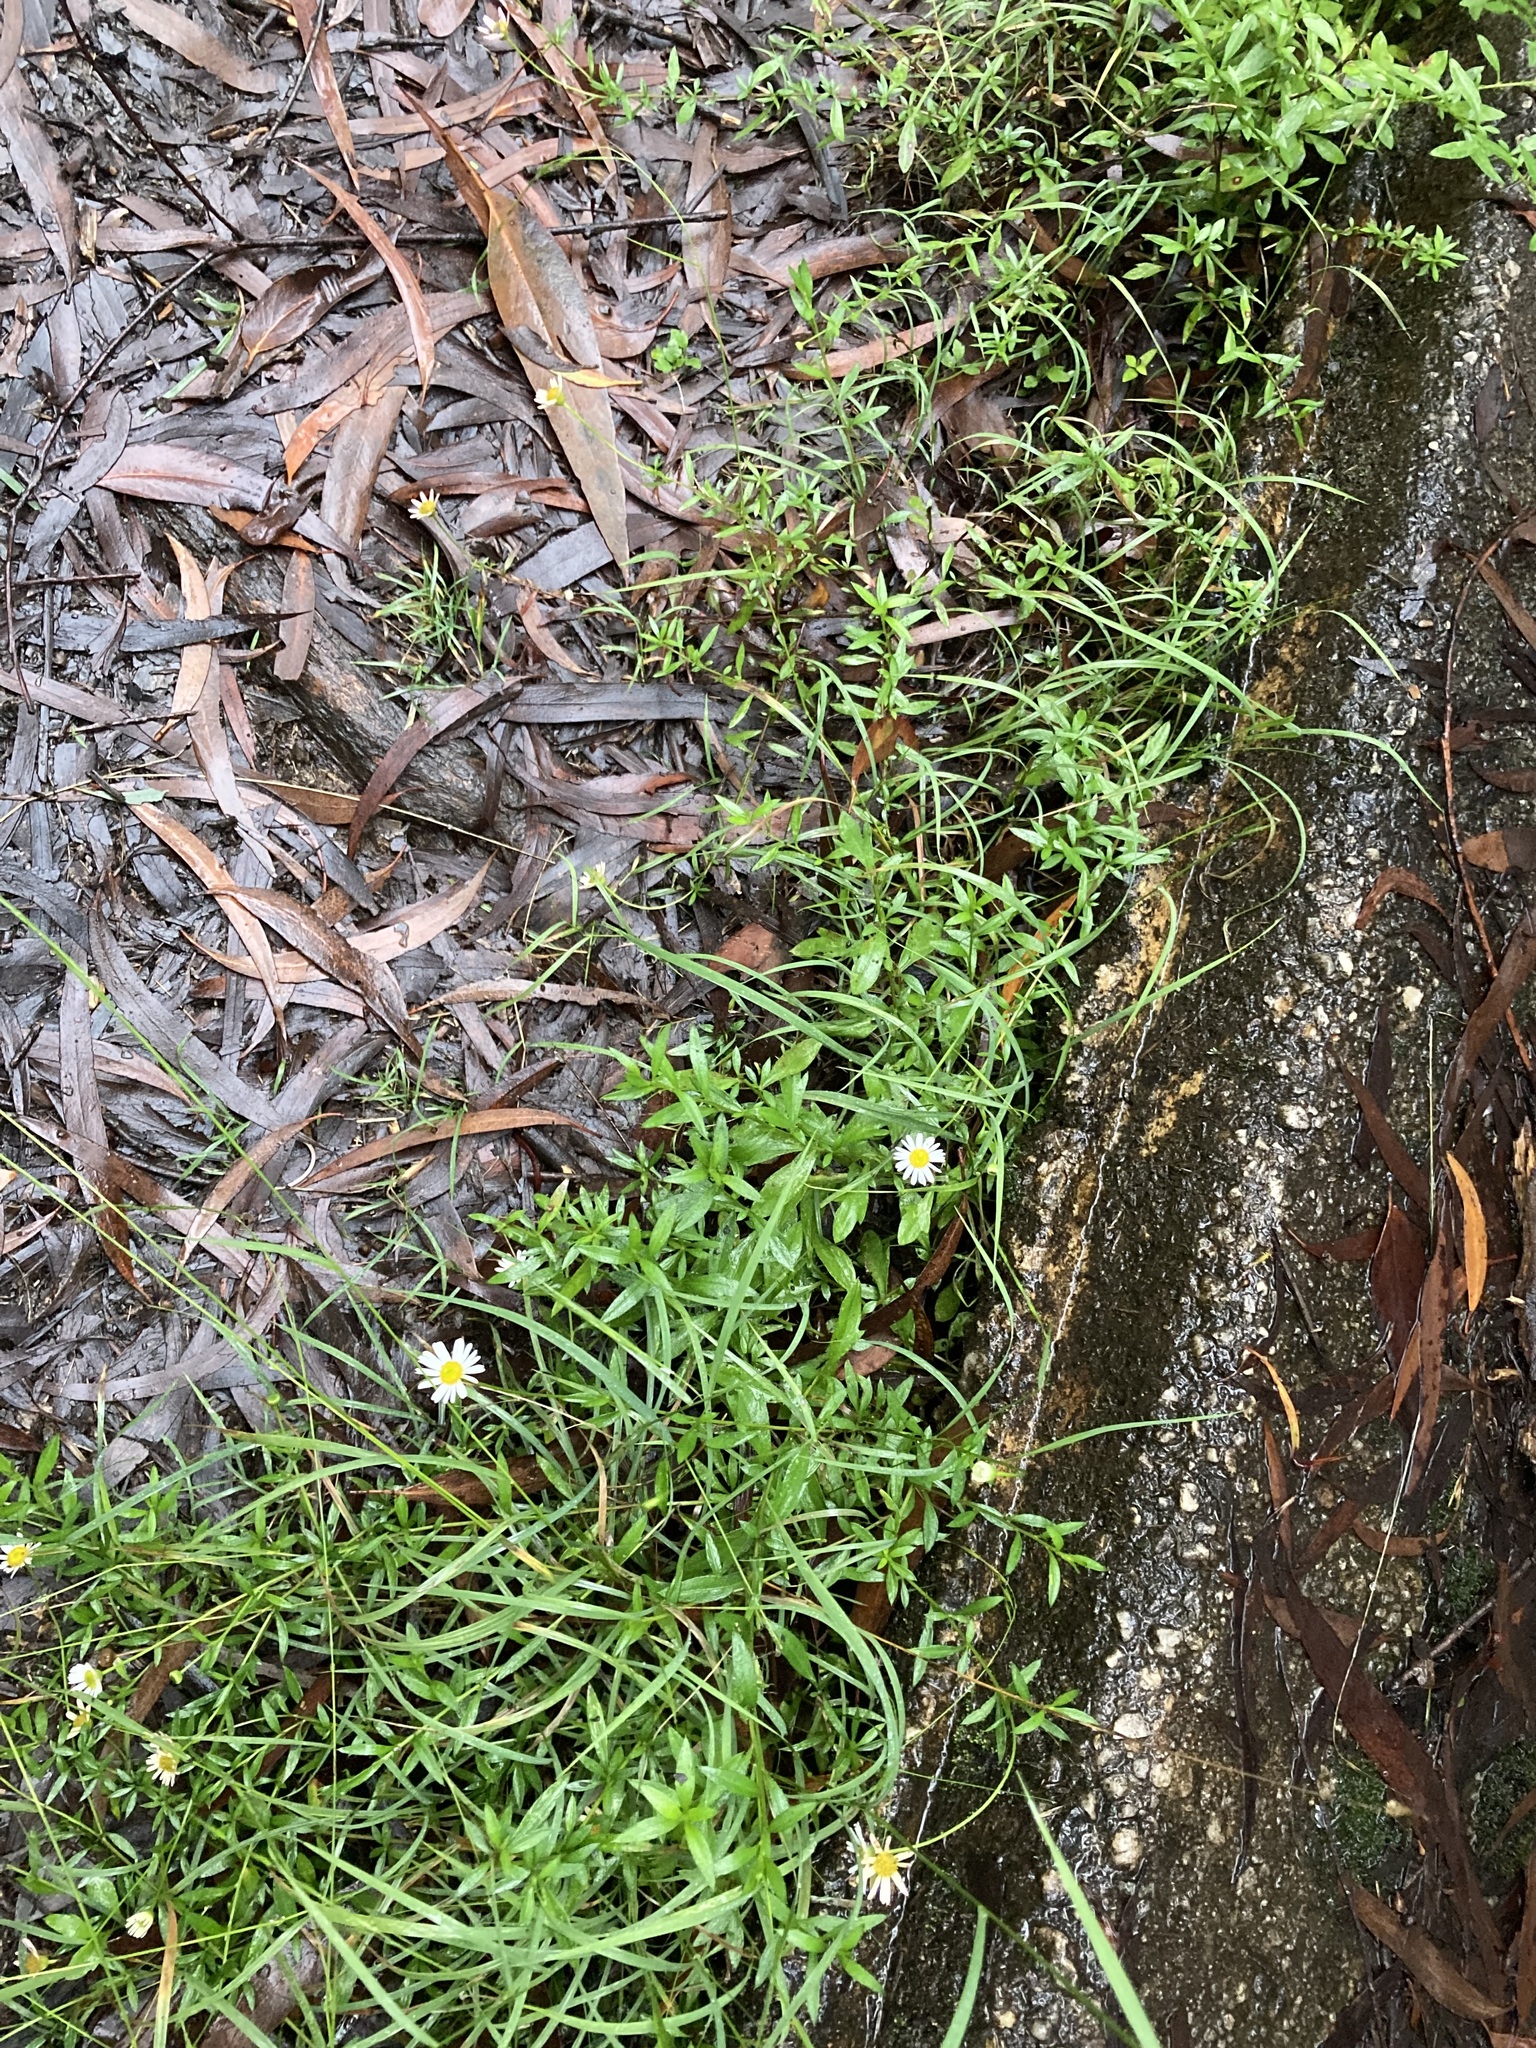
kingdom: Plantae
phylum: Tracheophyta
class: Magnoliopsida
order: Asterales
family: Asteraceae
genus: Erigeron
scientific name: Erigeron karvinskianus
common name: Mexican fleabane
